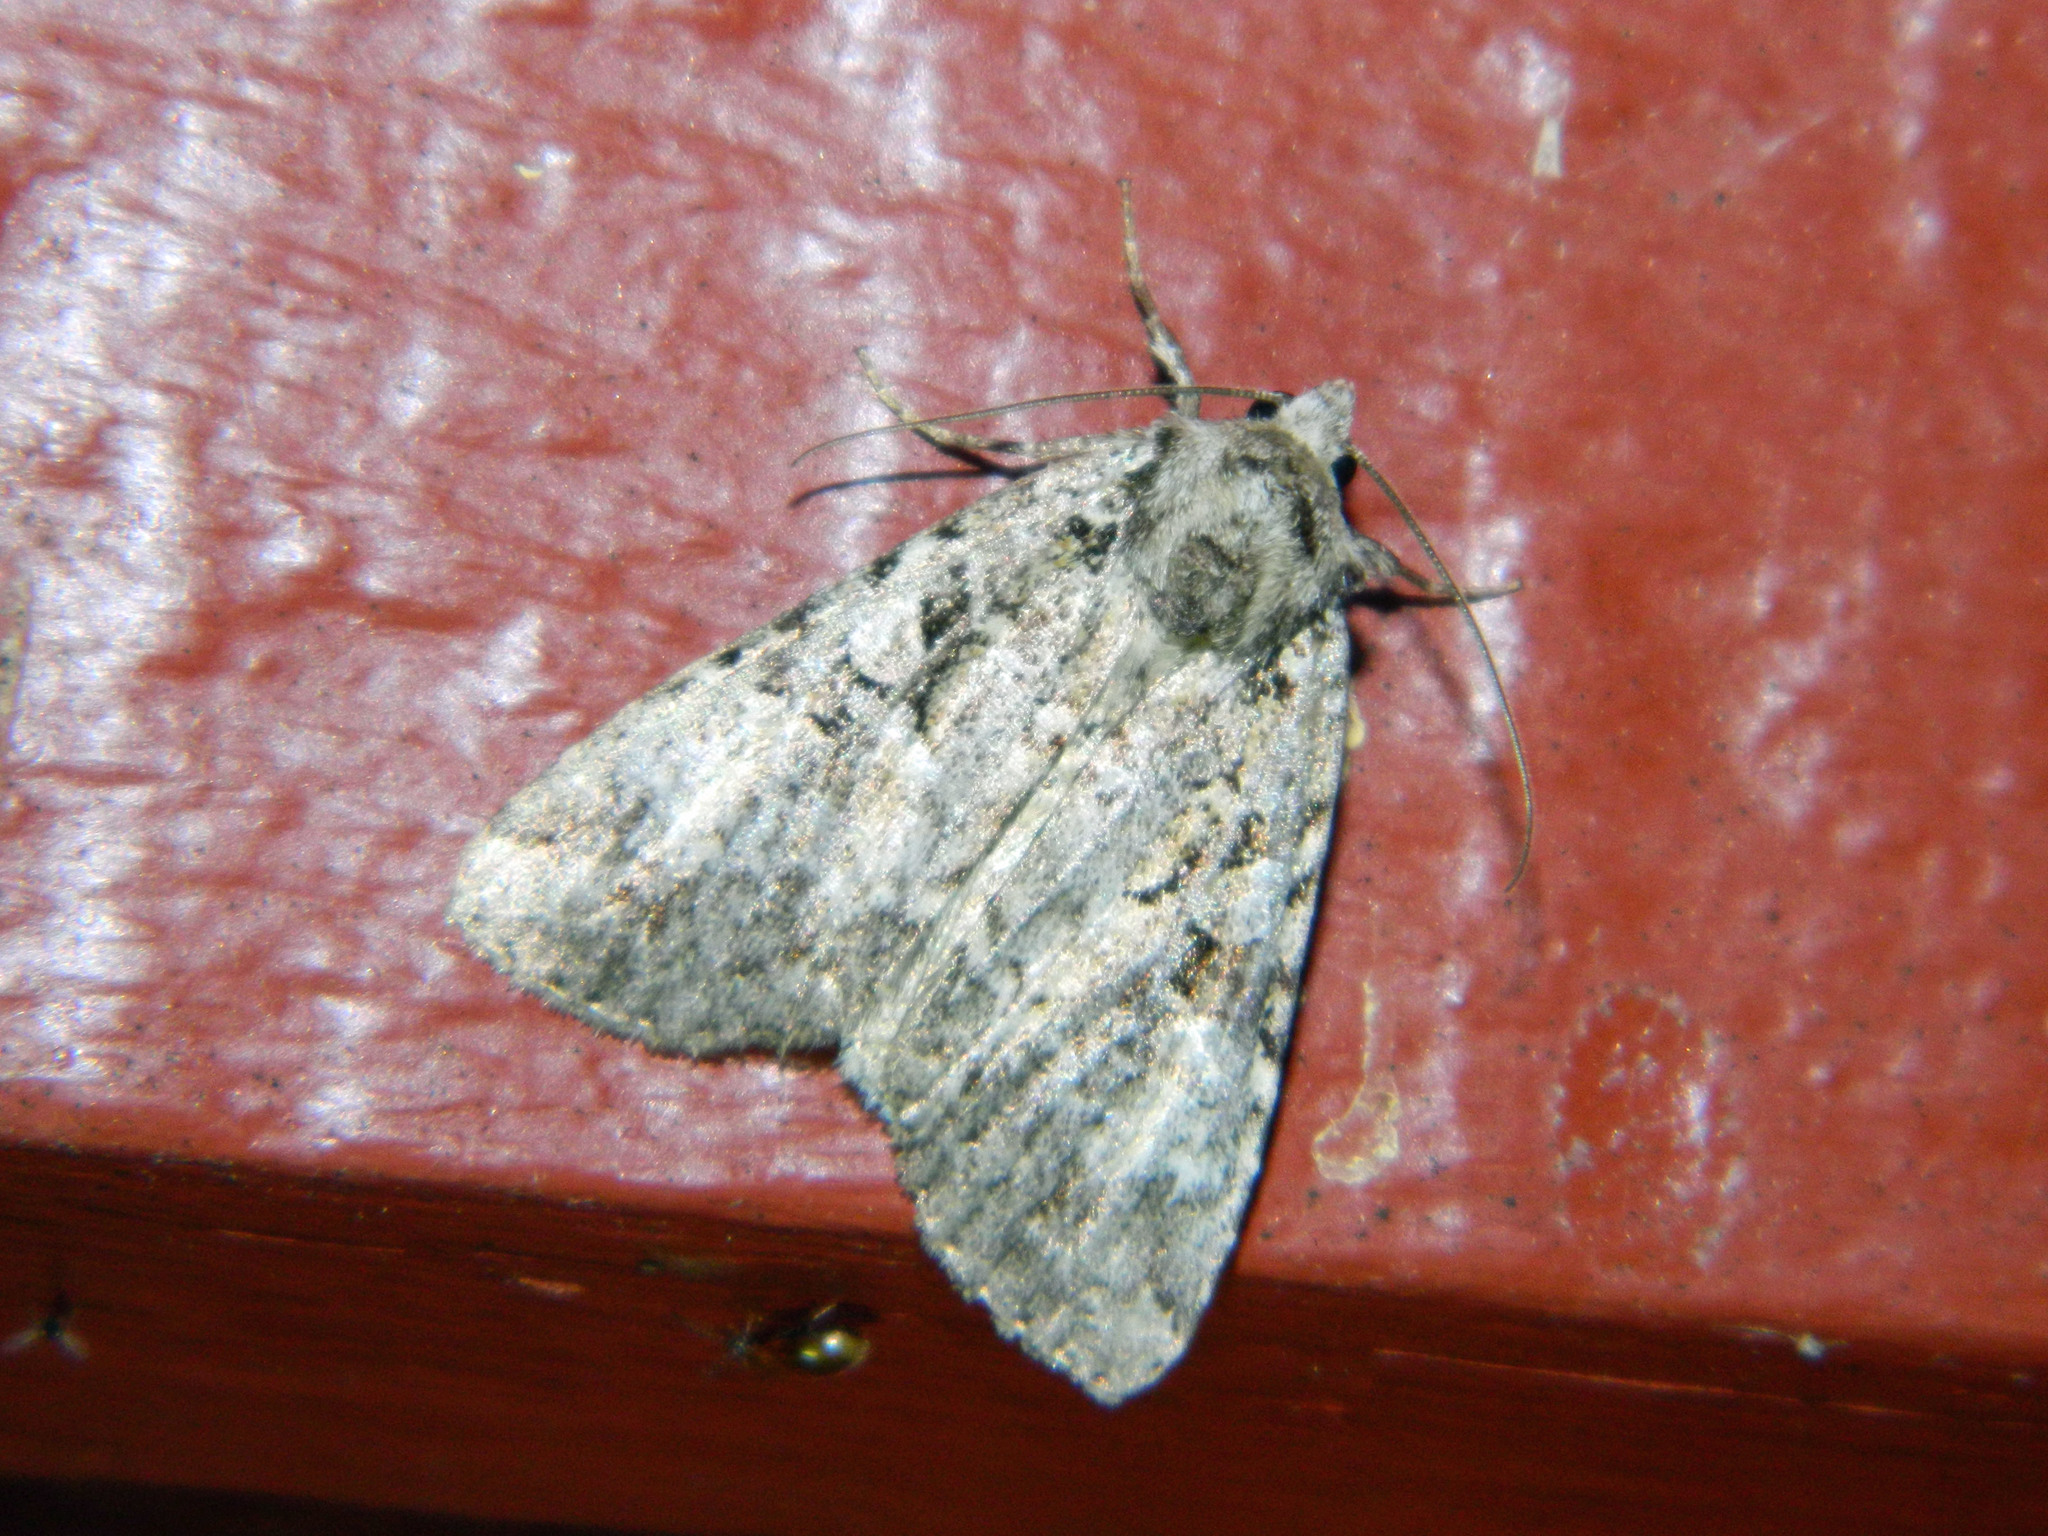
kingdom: Animalia
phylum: Arthropoda
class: Insecta
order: Lepidoptera
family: Noctuidae
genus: Anaplectoides
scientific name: Anaplectoides pressus
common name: Dappled dart
